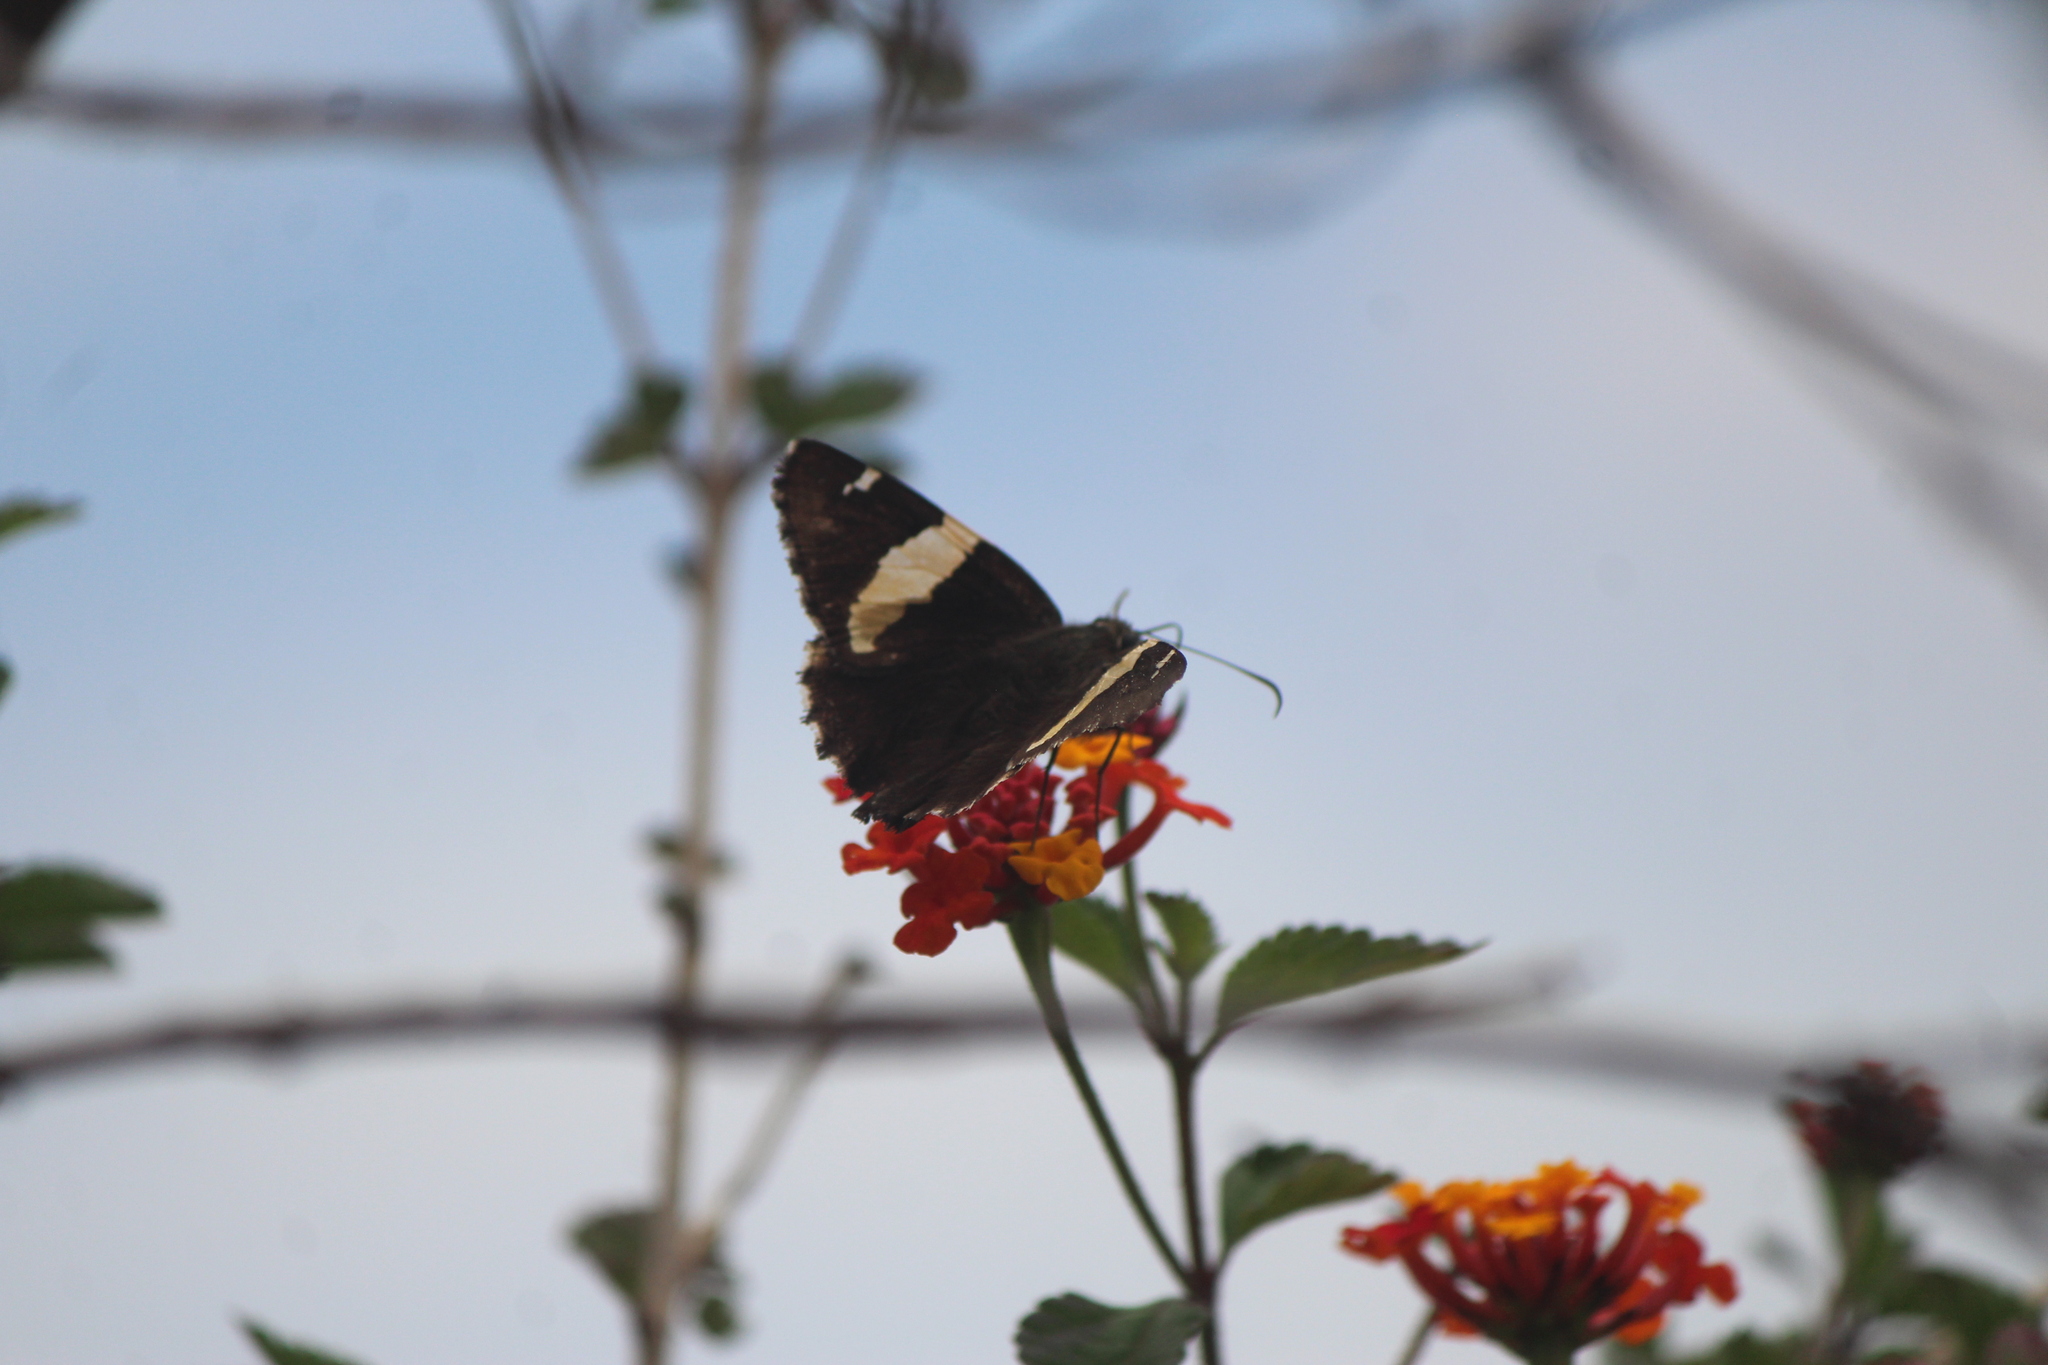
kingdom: Animalia
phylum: Arthropoda
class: Arachnida
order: Scorpiones
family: Bothriuridae
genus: Telegonus
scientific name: Telegonus cellus
